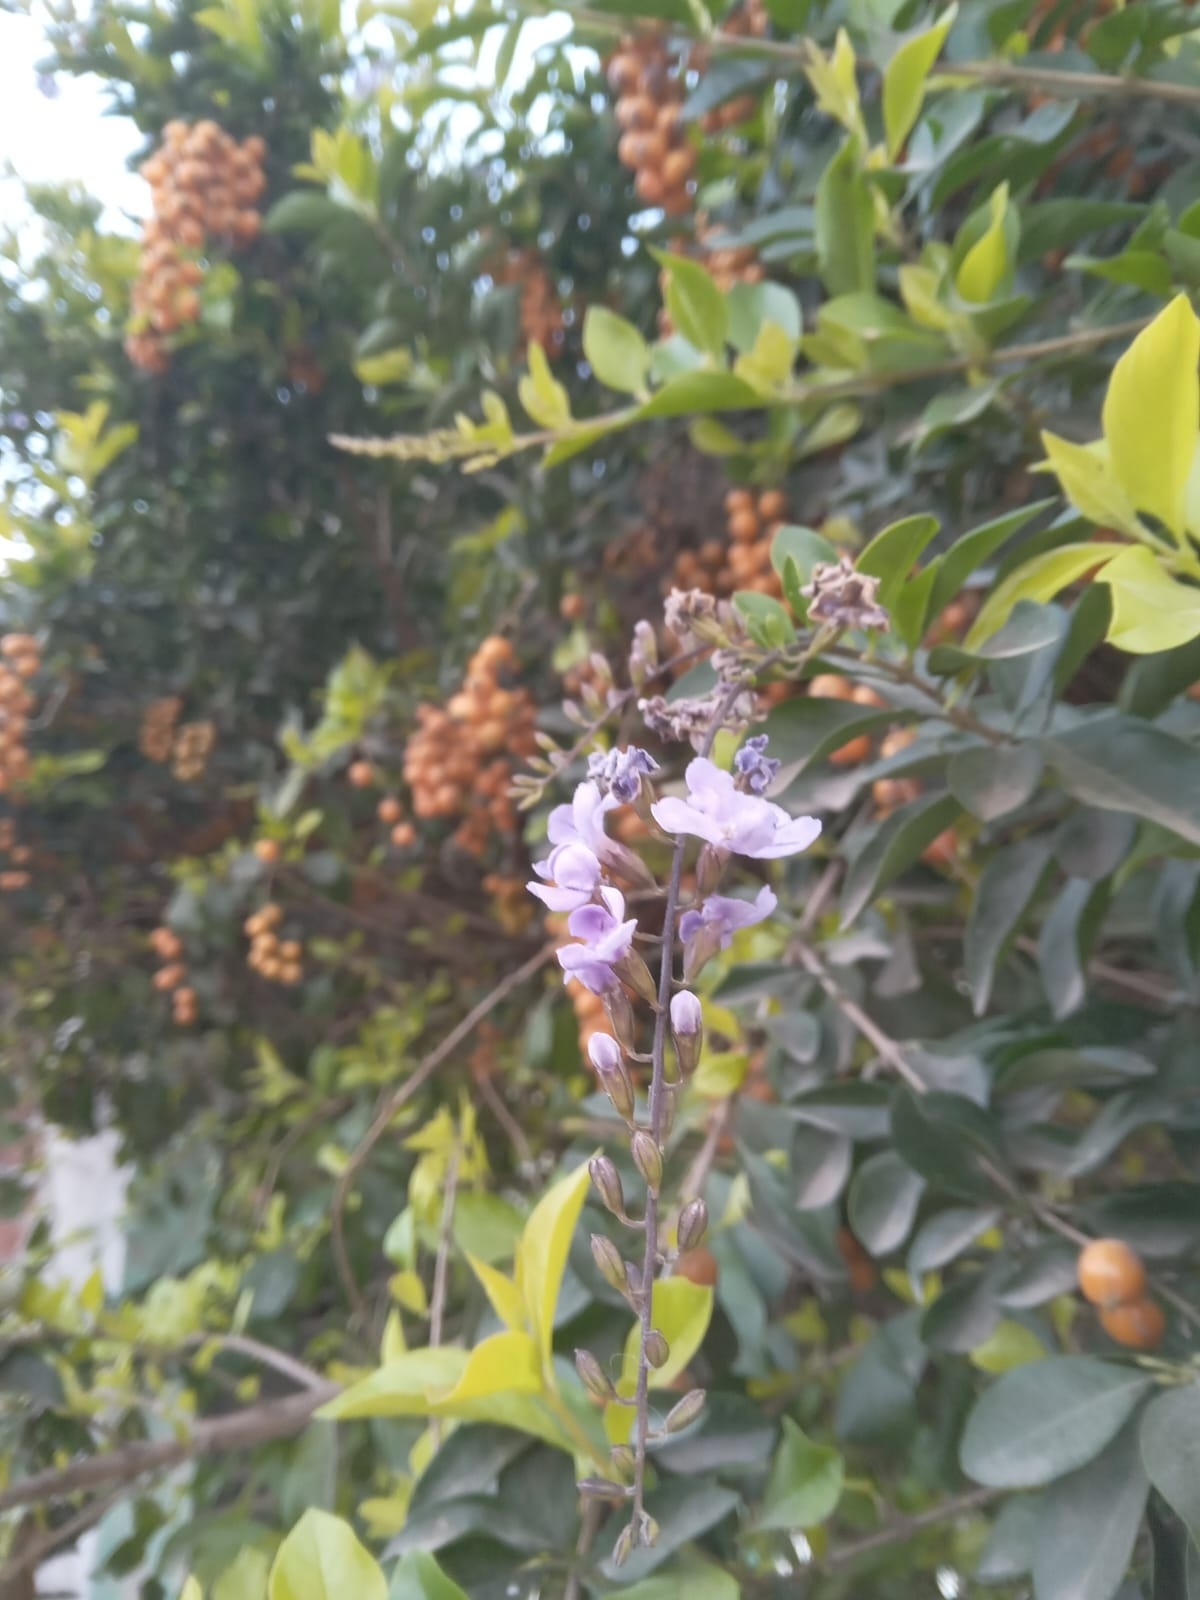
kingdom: Plantae
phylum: Tracheophyta
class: Magnoliopsida
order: Lamiales
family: Verbenaceae
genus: Duranta
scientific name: Duranta erecta
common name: Golden dewdrops
